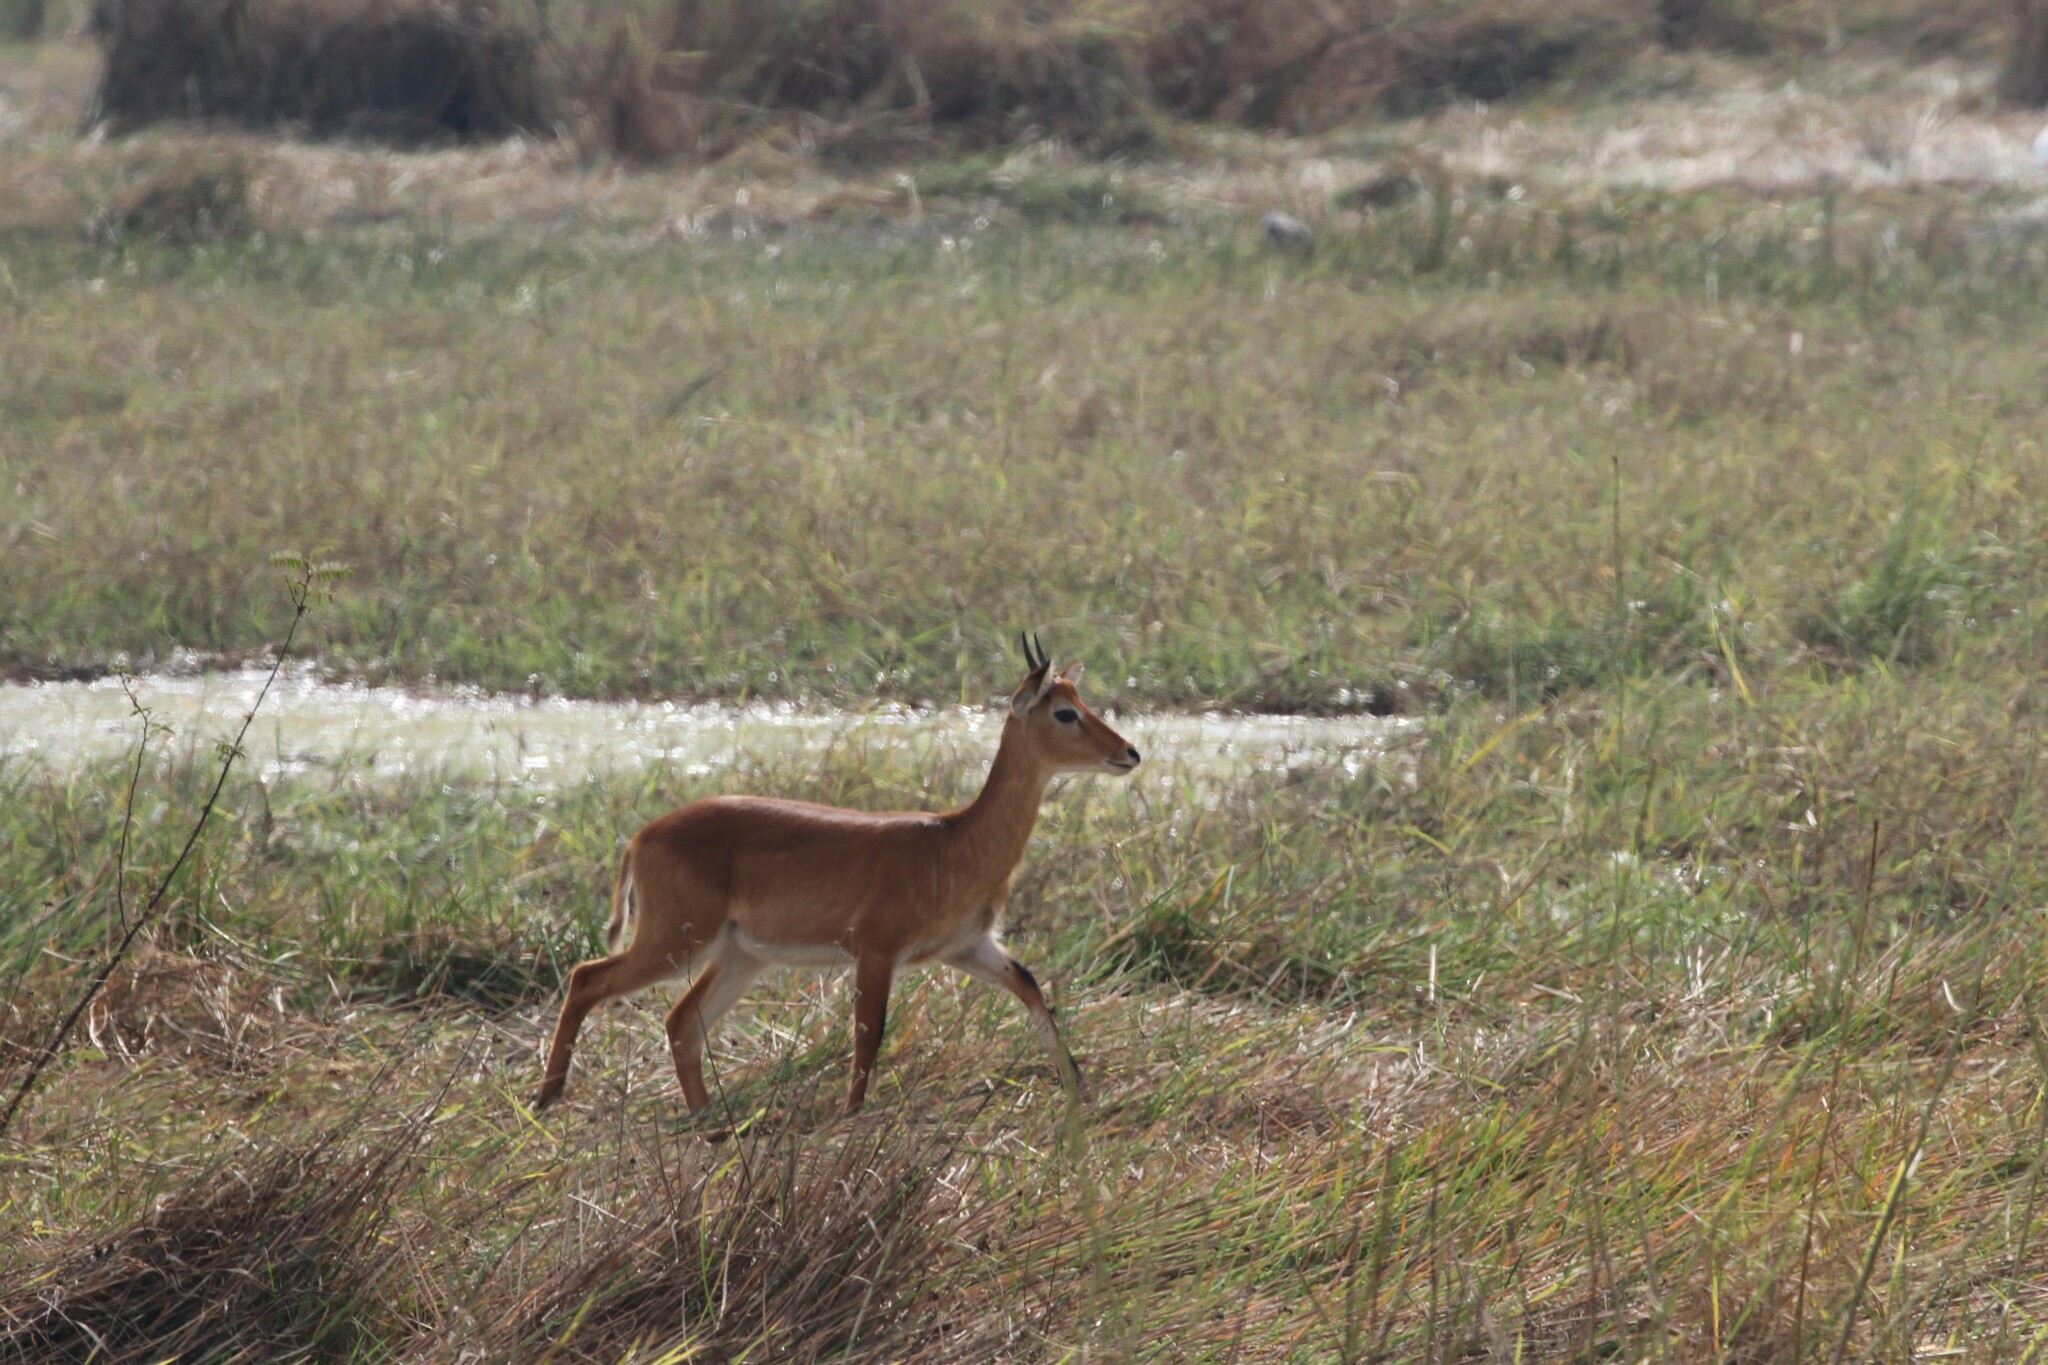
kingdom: Animalia
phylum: Chordata
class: Mammalia
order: Artiodactyla
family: Bovidae
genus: Kobus
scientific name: Kobus kob
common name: Kob
